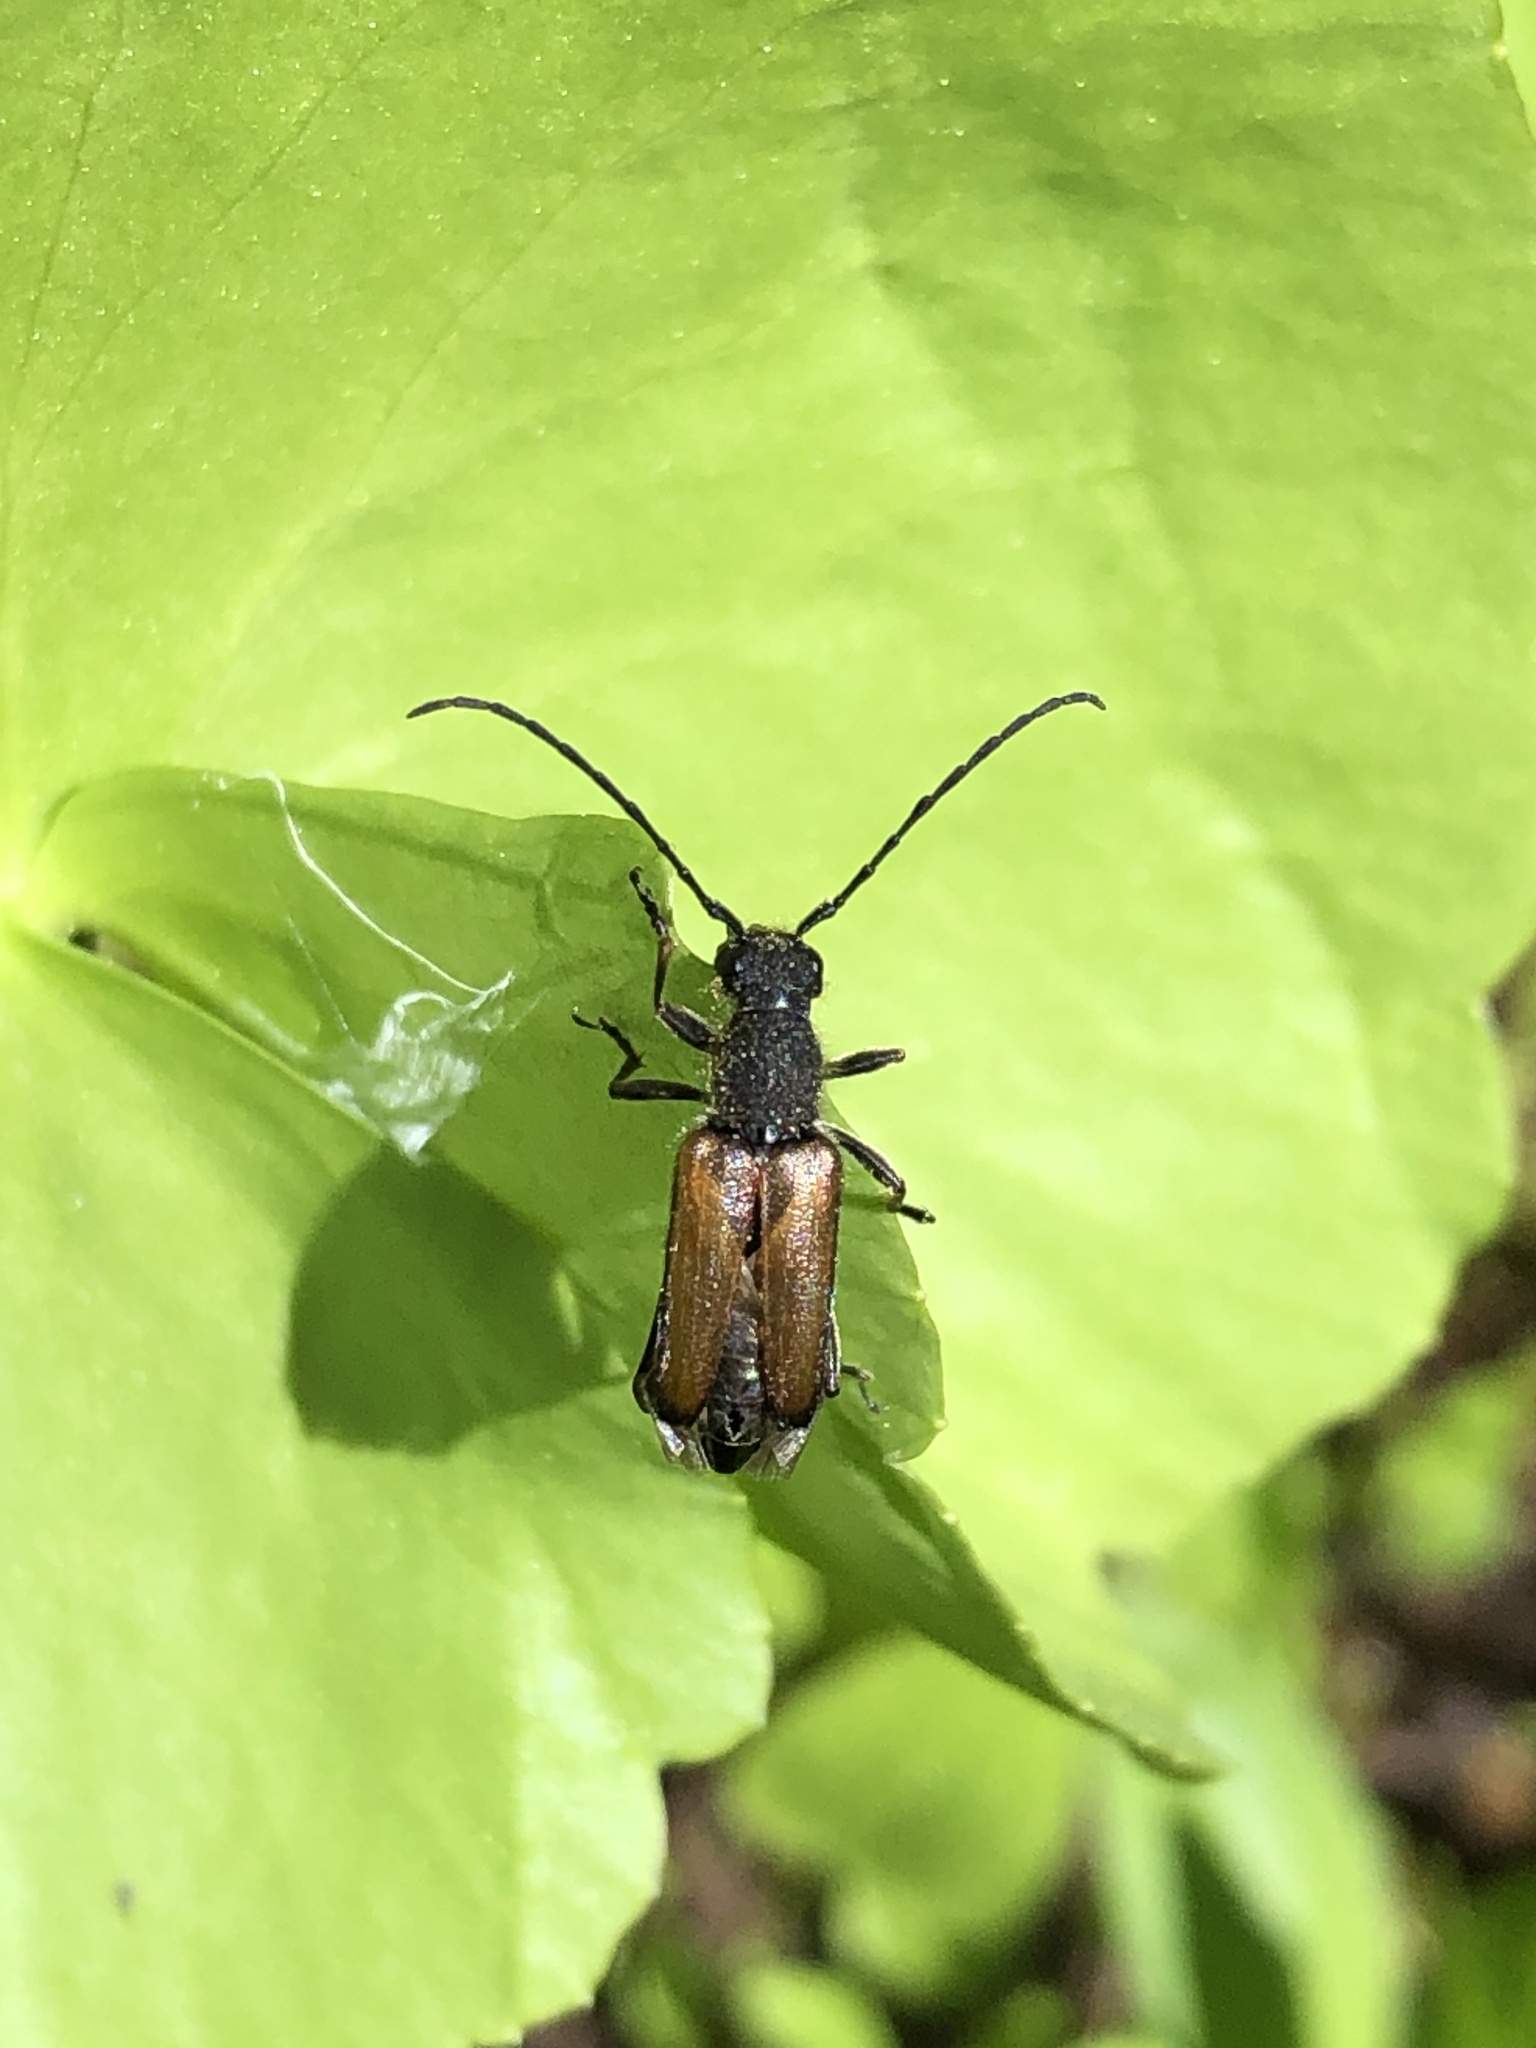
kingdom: Animalia
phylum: Arthropoda
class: Insecta
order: Coleoptera
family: Cerambycidae
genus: Anastrangalia
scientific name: Anastrangalia sanguinea
